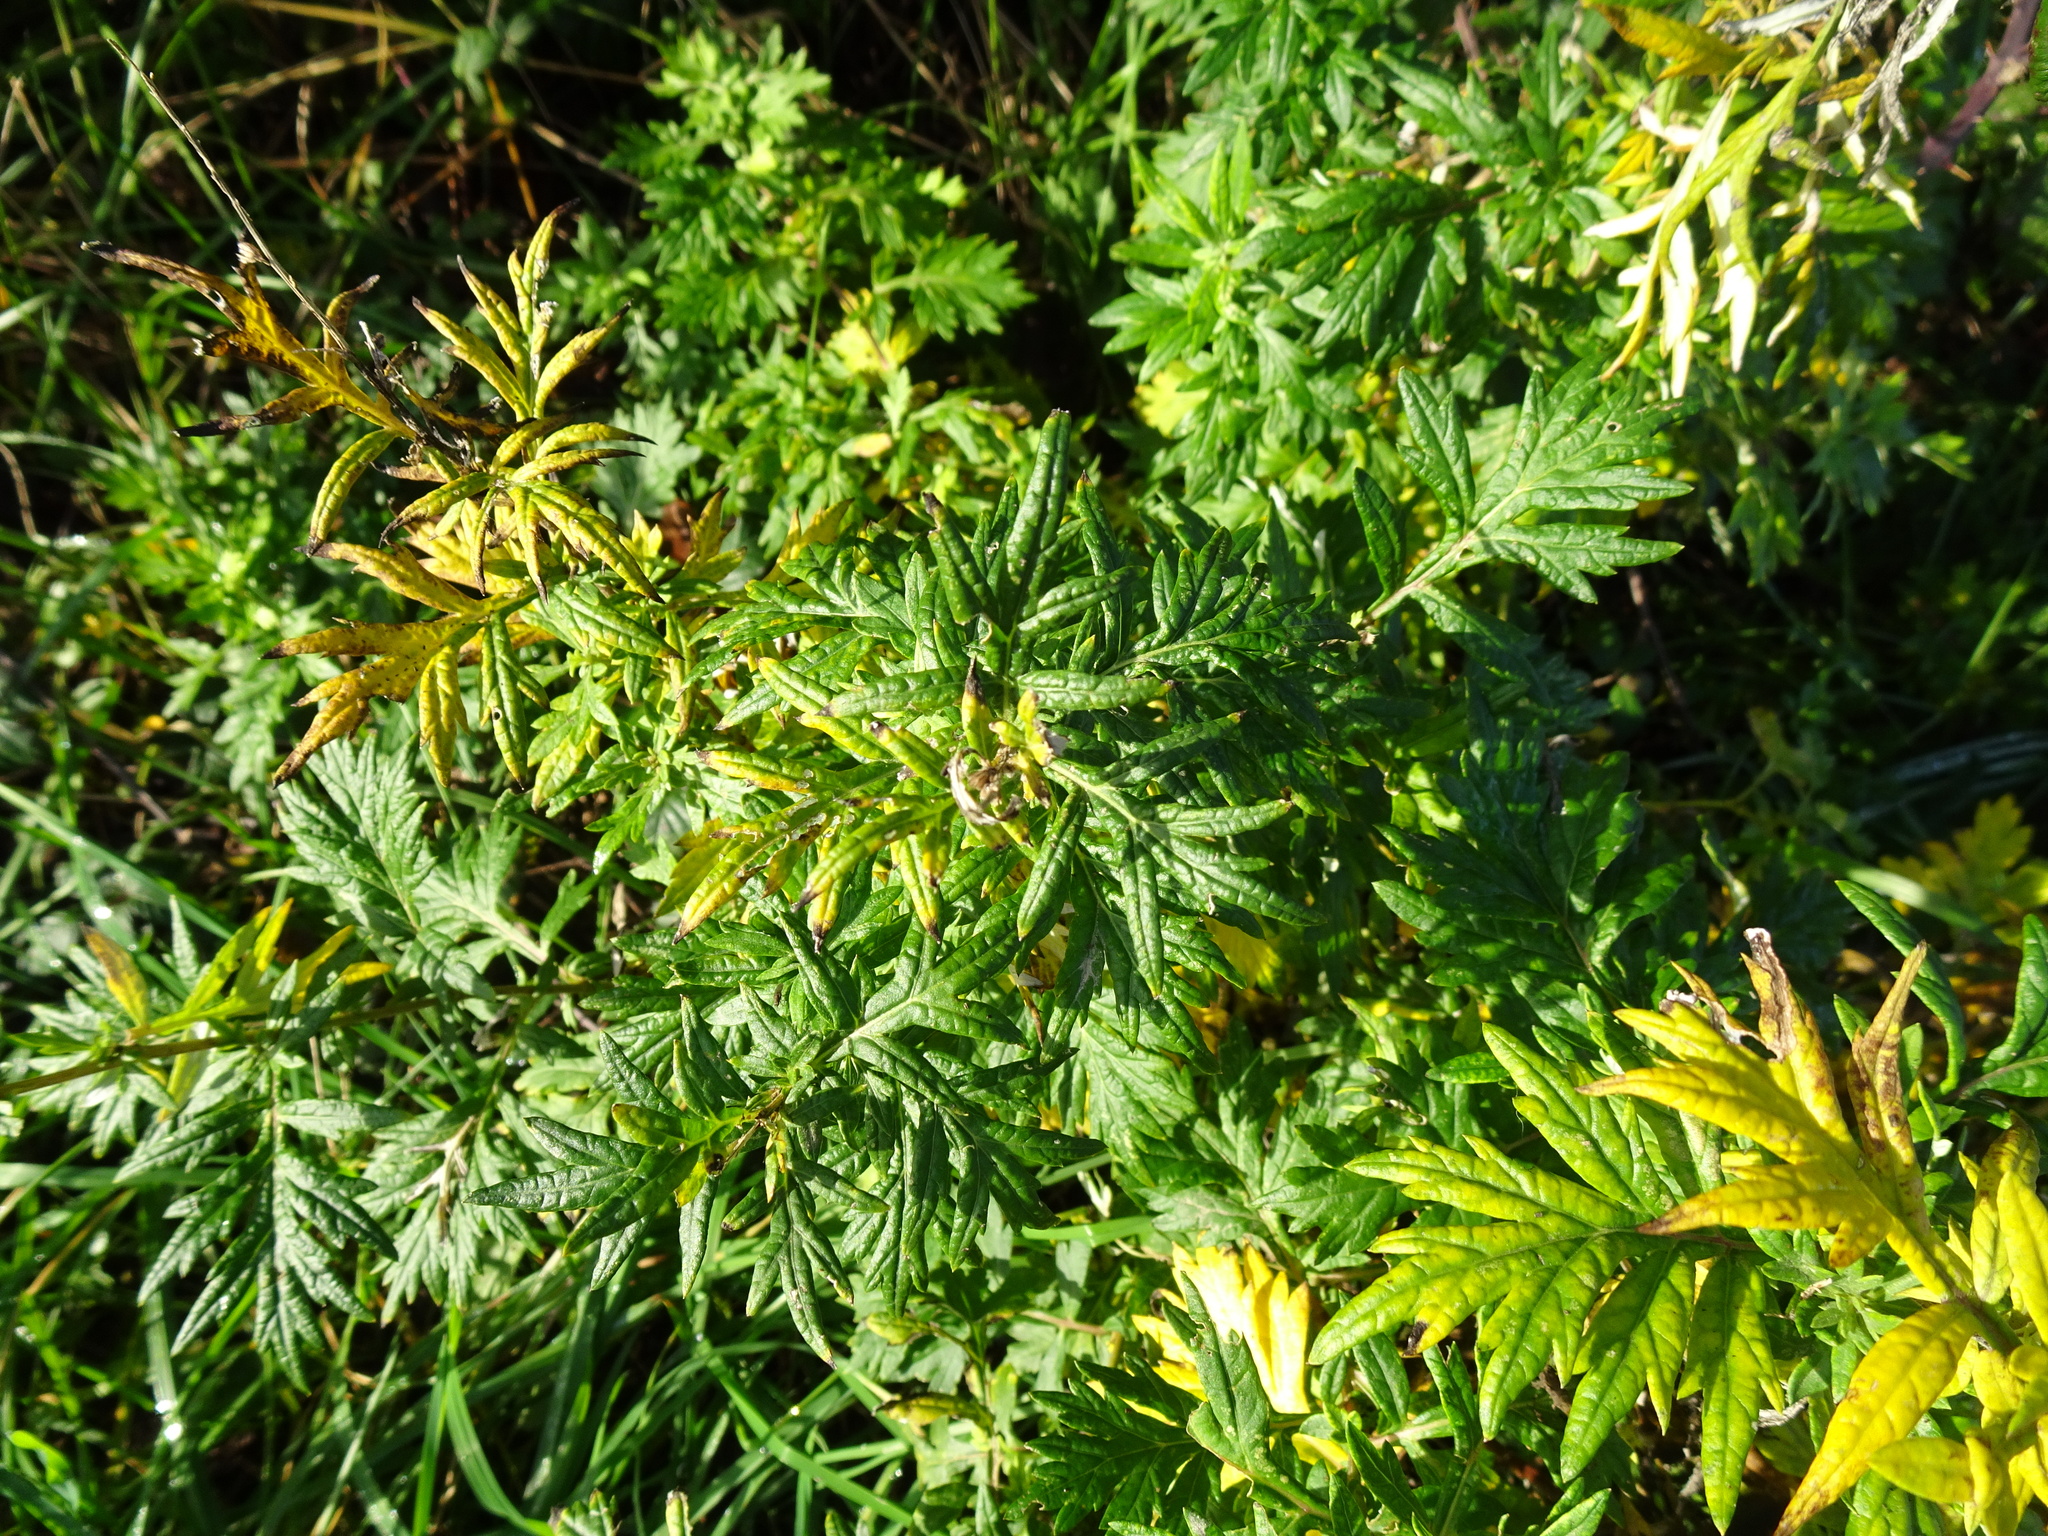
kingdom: Plantae
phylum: Tracheophyta
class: Magnoliopsida
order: Asterales
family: Asteraceae
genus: Artemisia
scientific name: Artemisia vulgaris
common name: Mugwort
